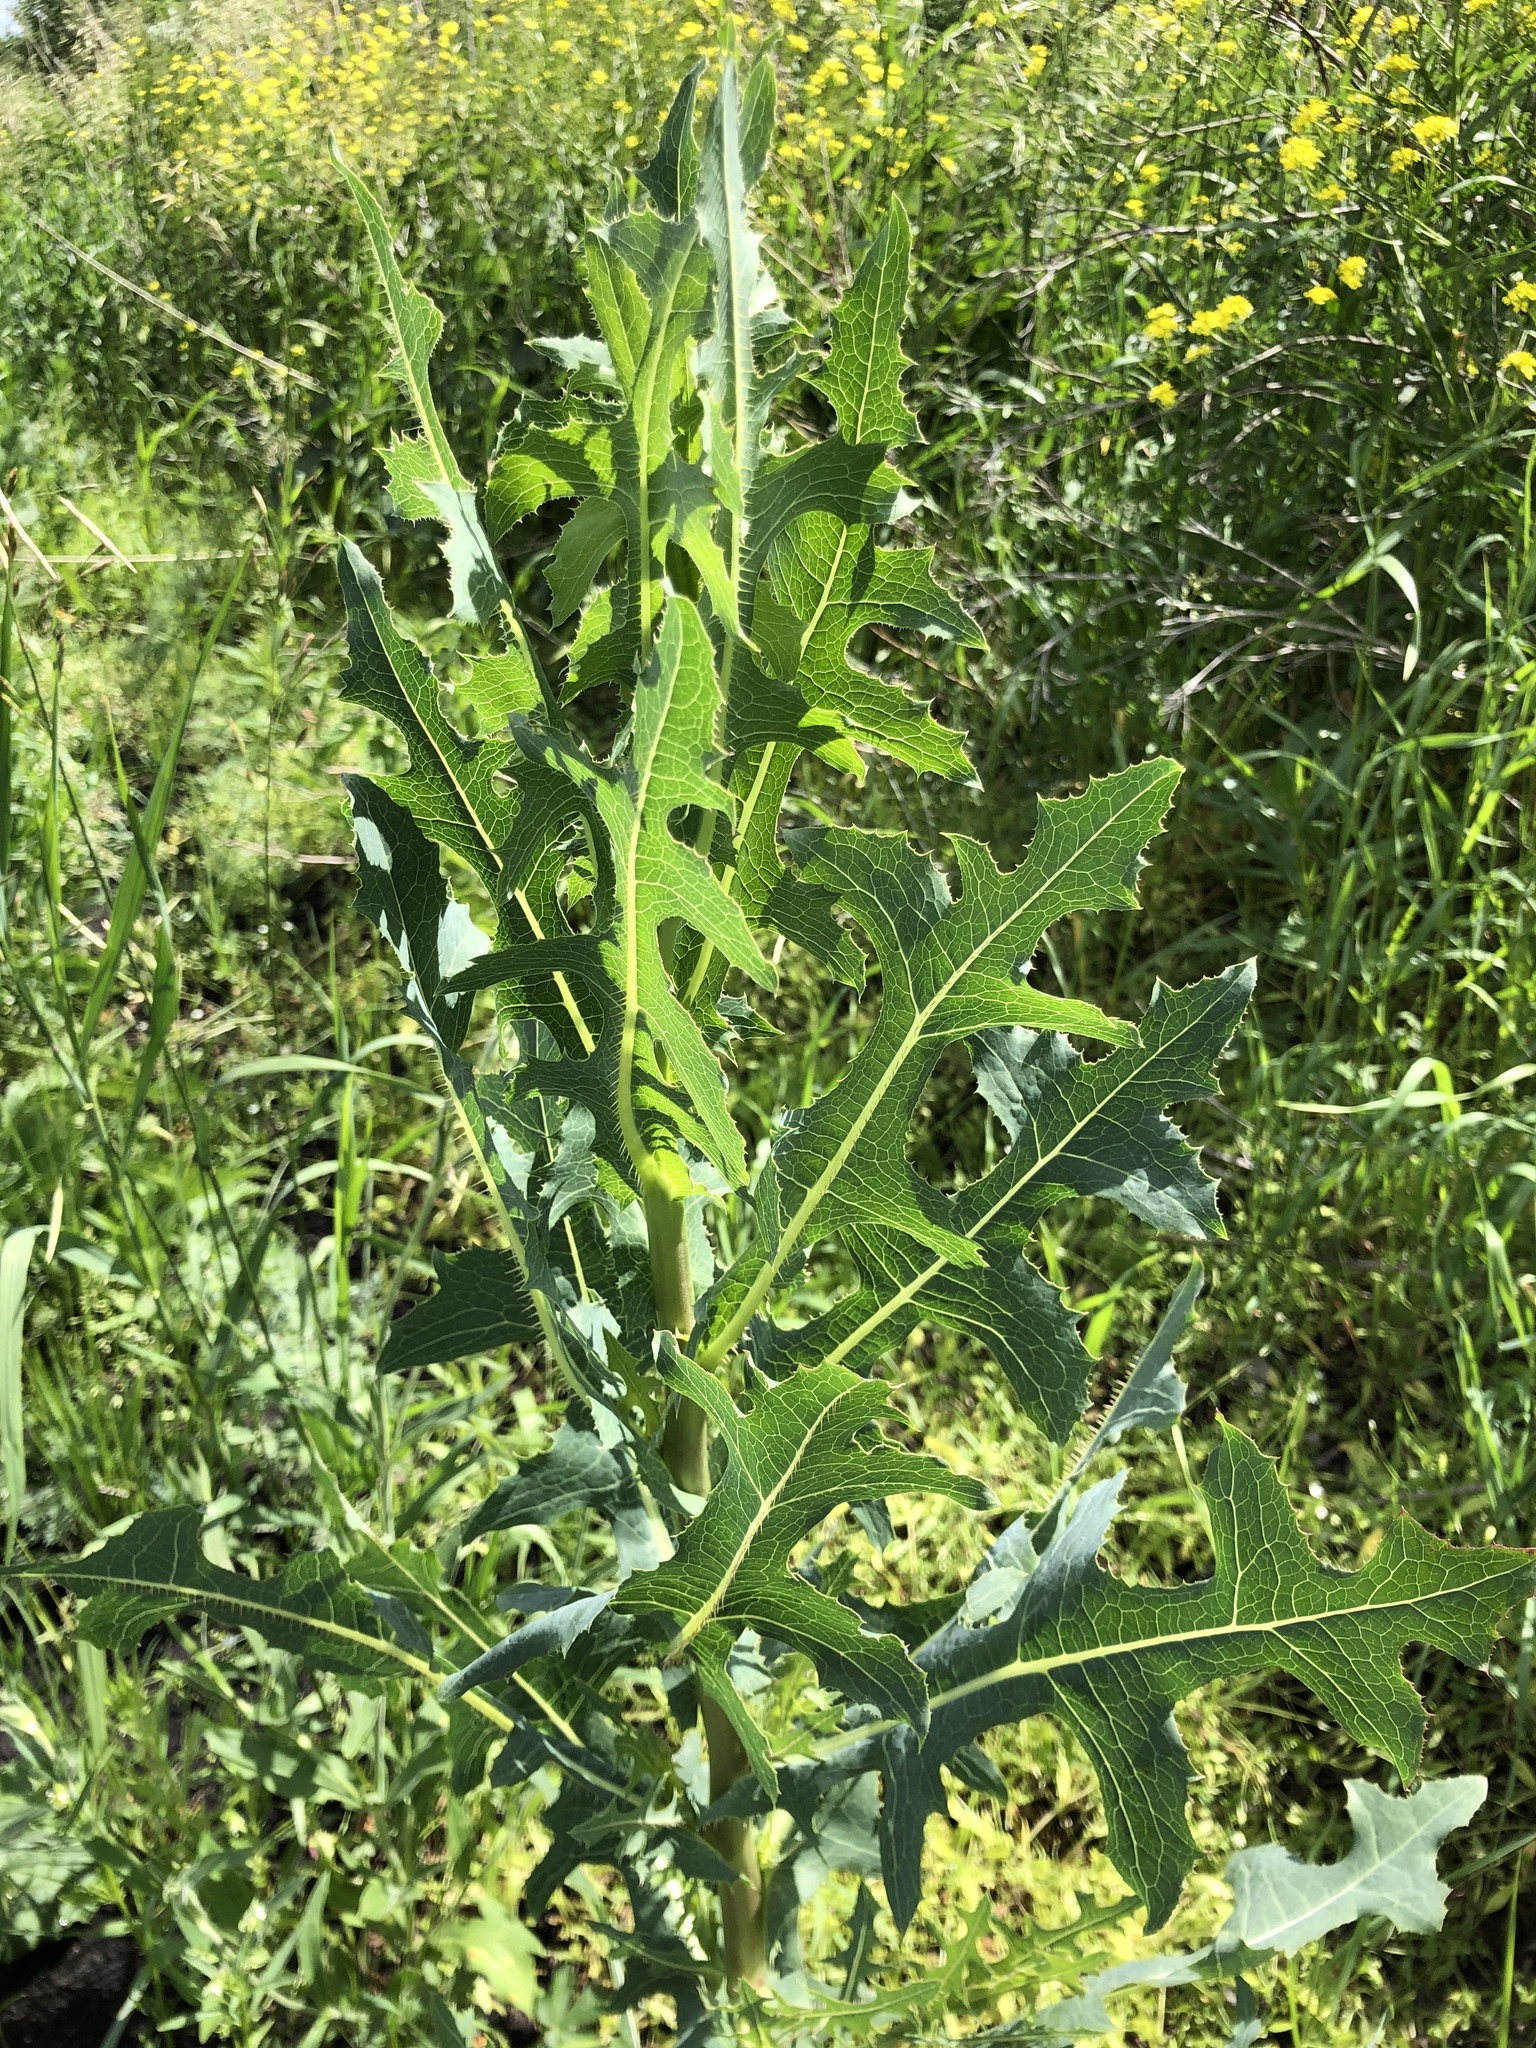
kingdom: Plantae
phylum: Tracheophyta
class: Magnoliopsida
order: Asterales
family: Asteraceae
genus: Lactuca
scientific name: Lactuca serriola
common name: Prickly lettuce
